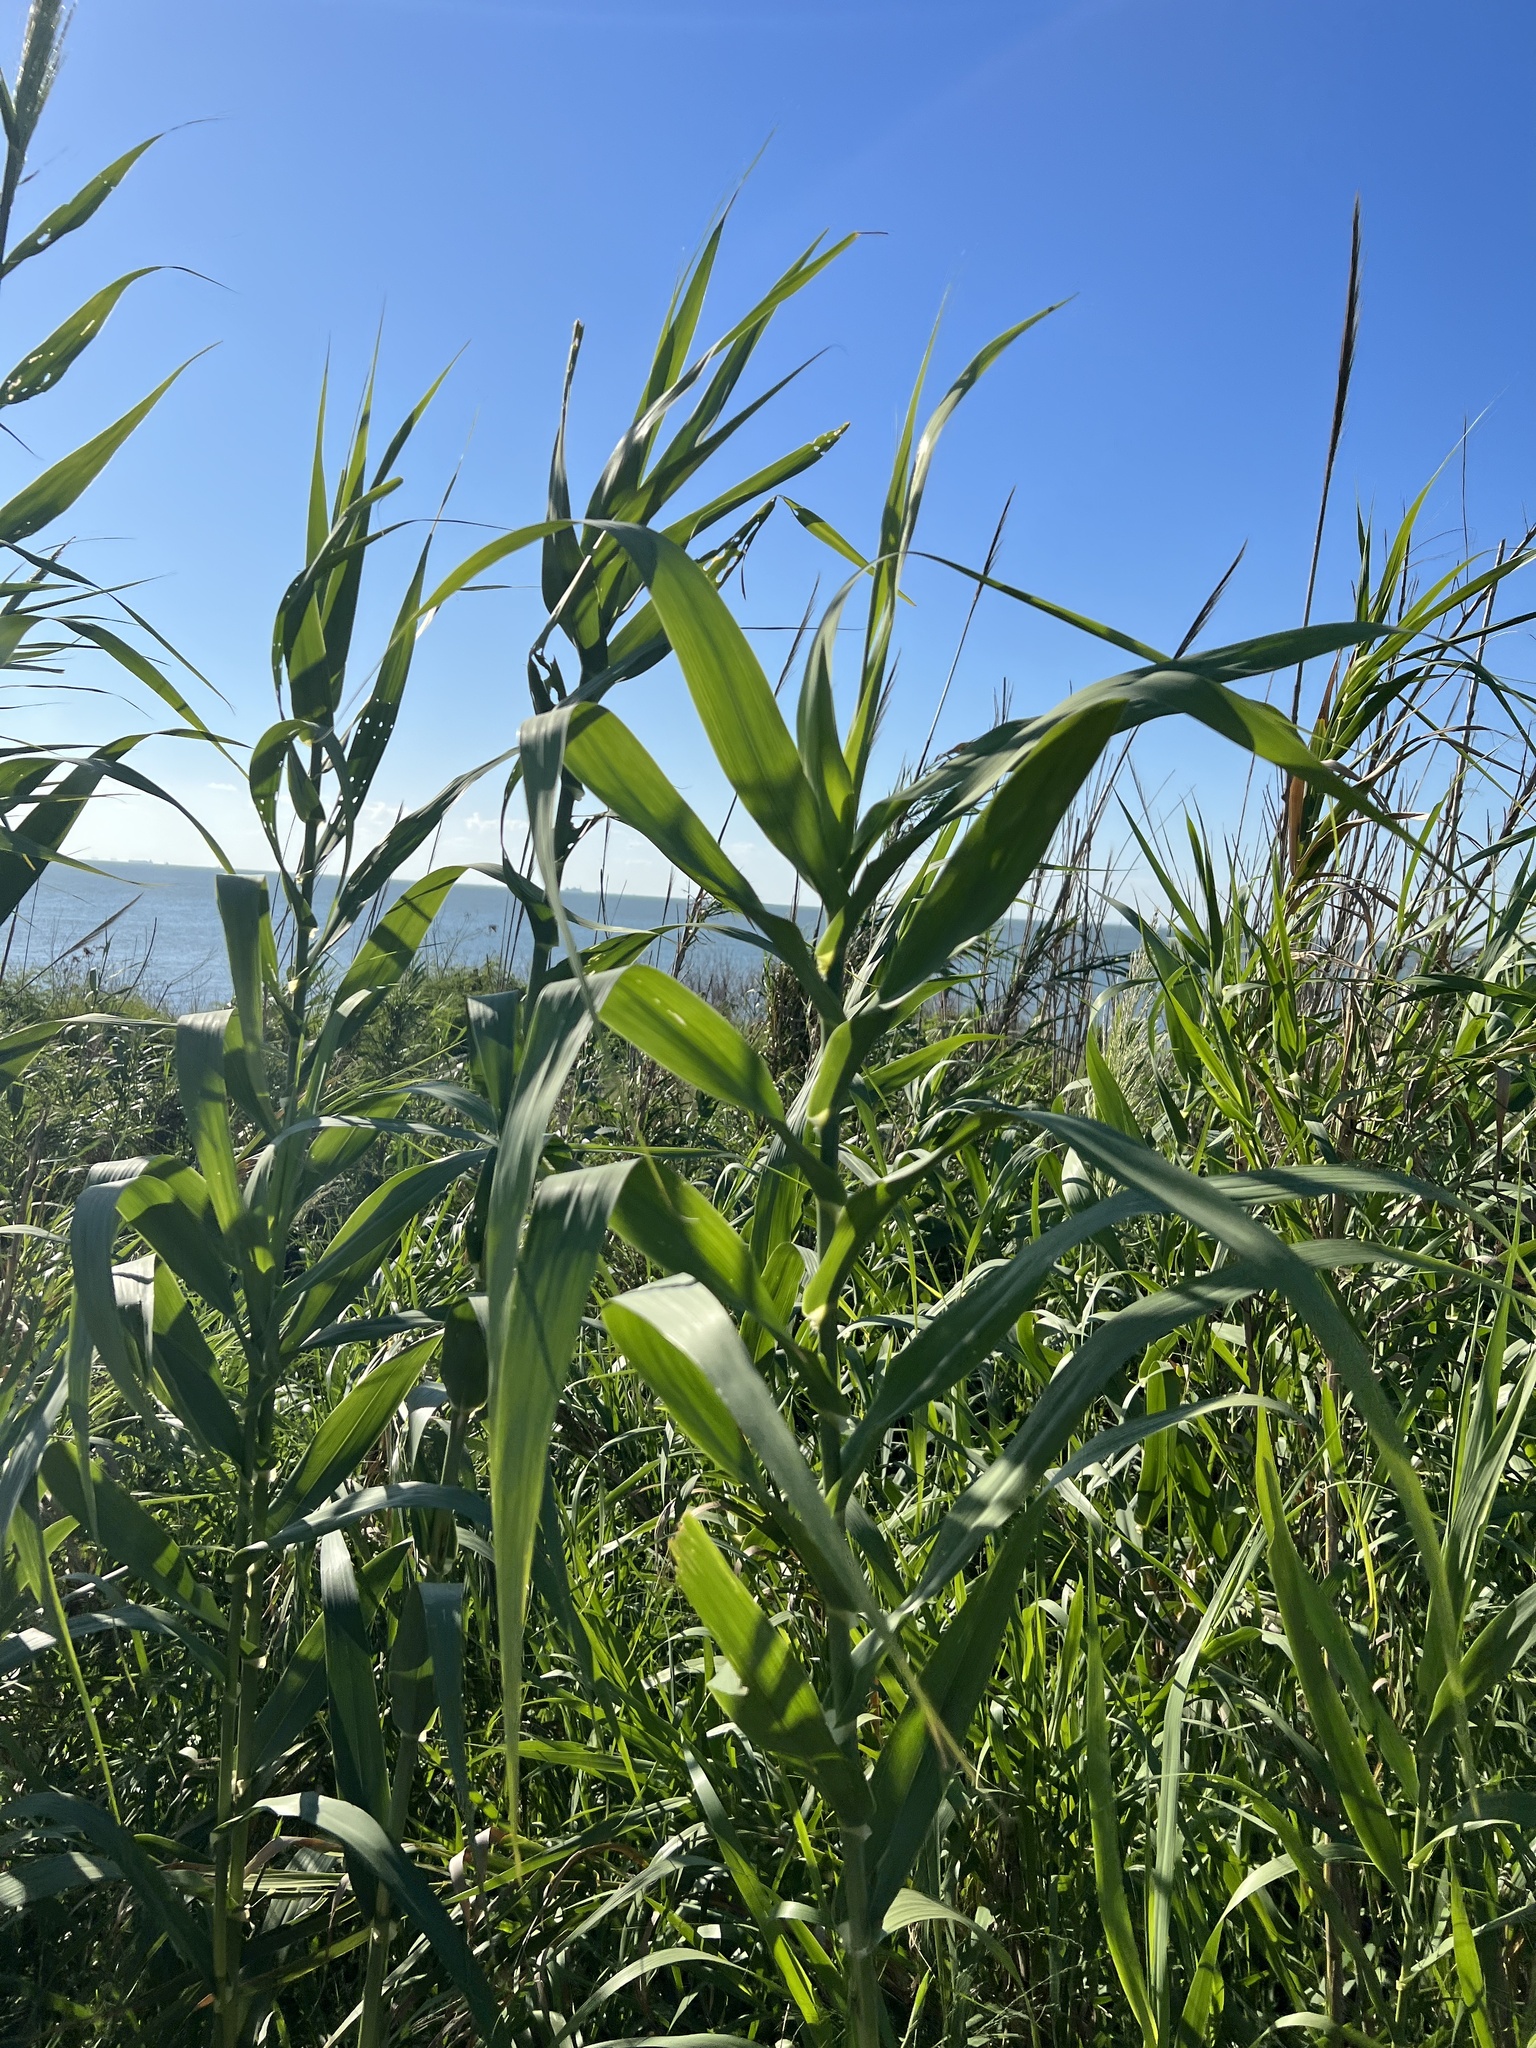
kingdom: Plantae
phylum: Tracheophyta
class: Liliopsida
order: Poales
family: Poaceae
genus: Phragmites
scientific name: Phragmites australis
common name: Common reed
